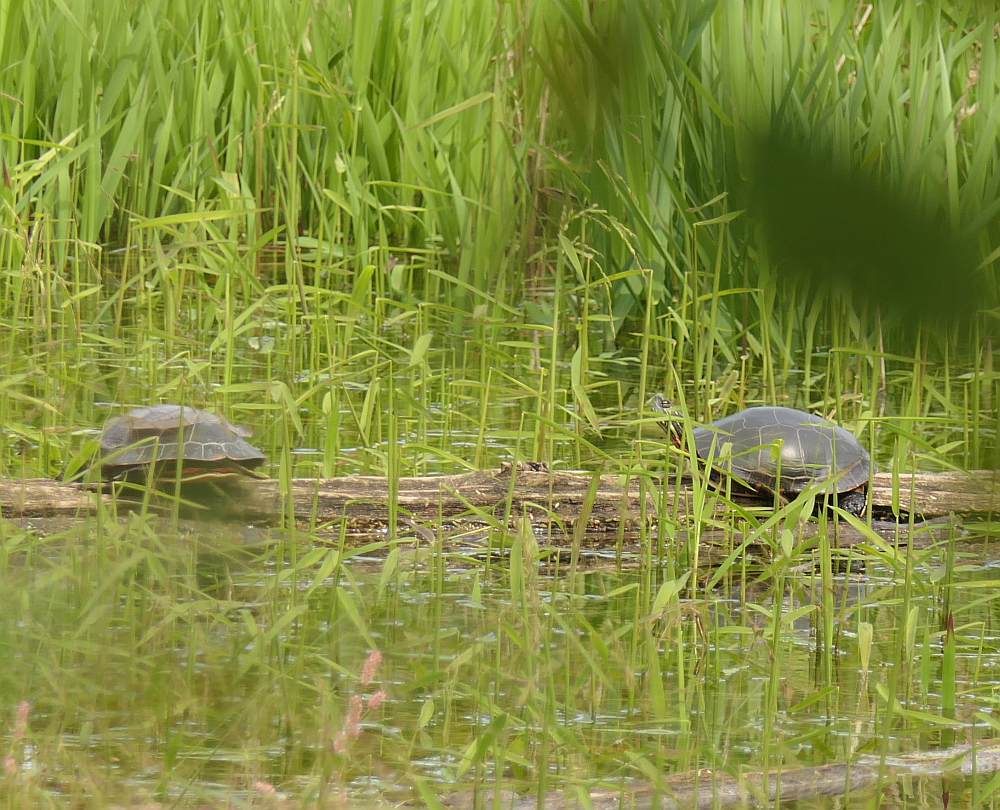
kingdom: Animalia
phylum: Chordata
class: Testudines
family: Emydidae
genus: Chrysemys
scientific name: Chrysemys picta
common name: Painted turtle
